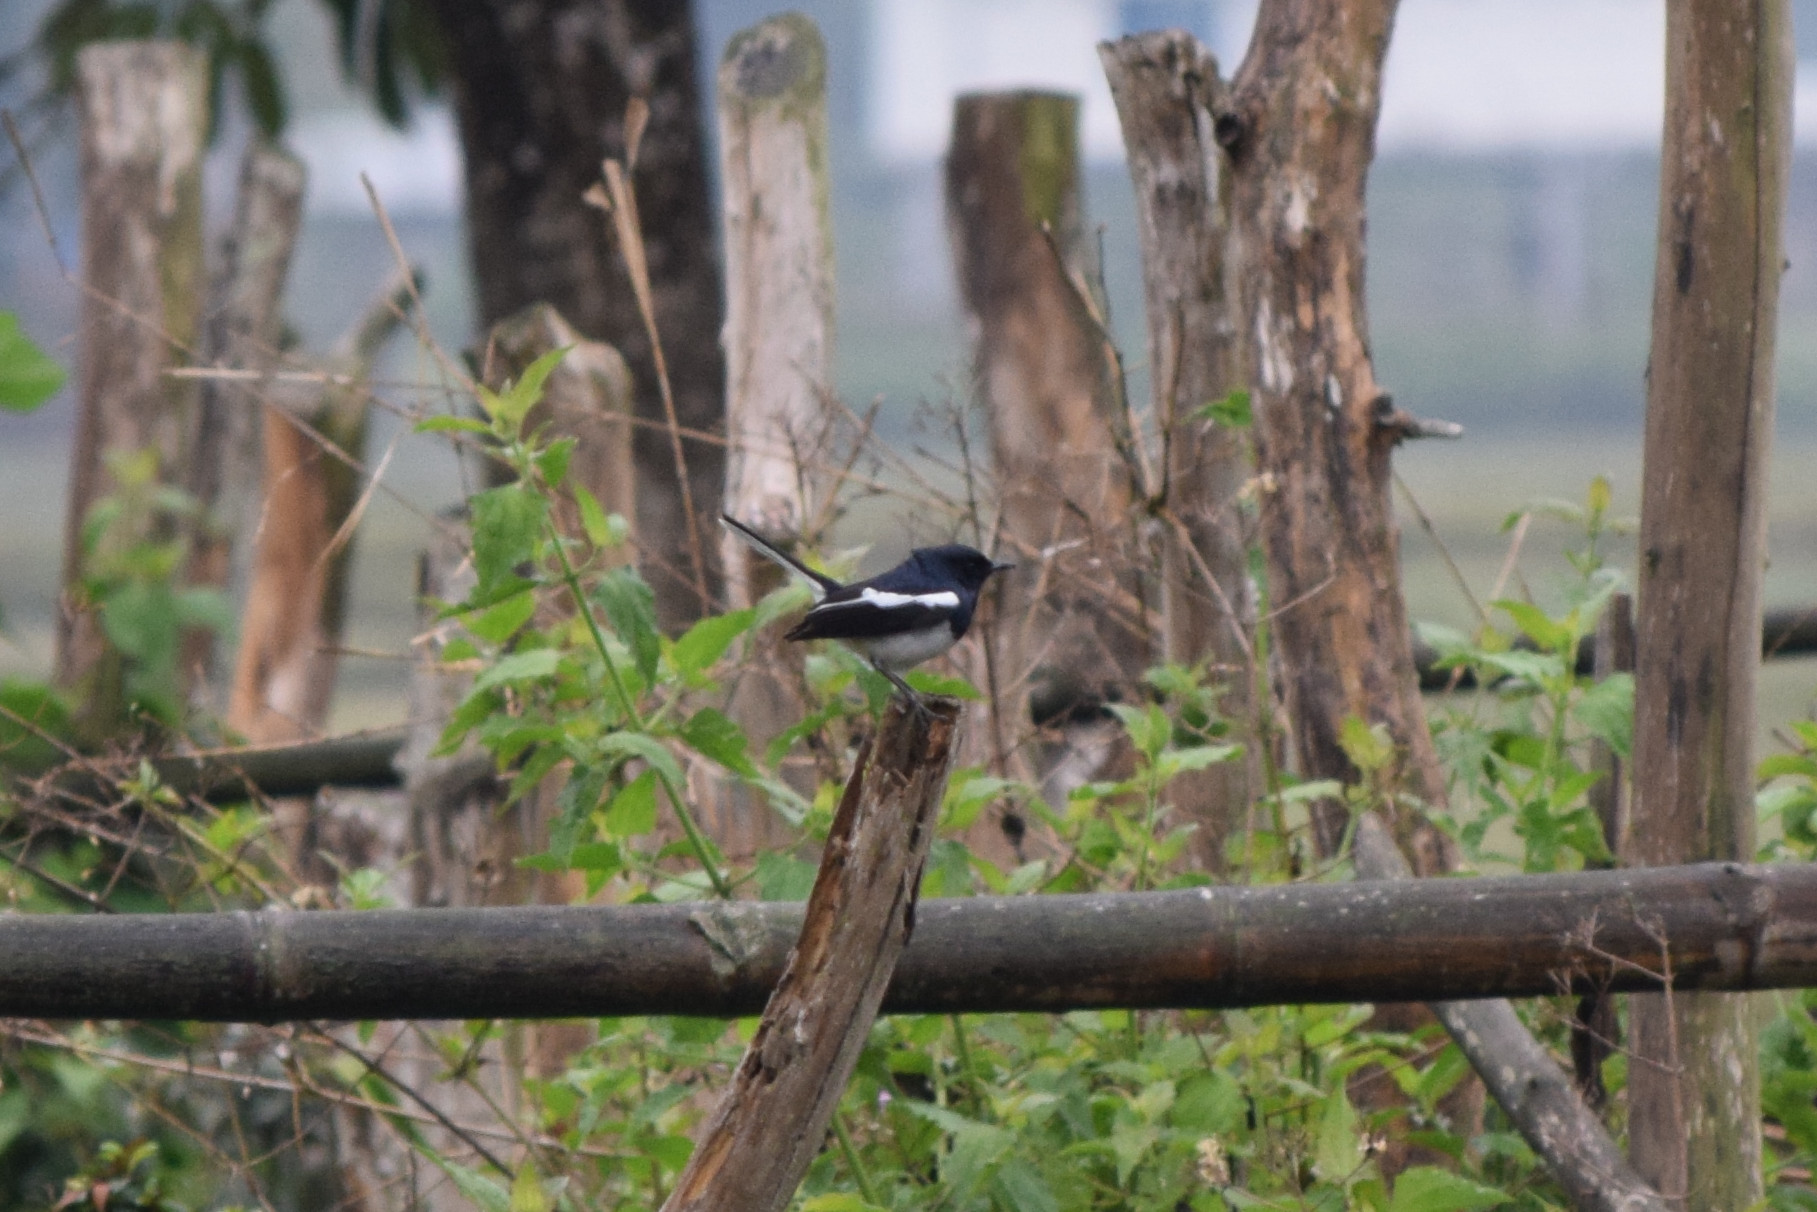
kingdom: Animalia
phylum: Chordata
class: Aves
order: Passeriformes
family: Muscicapidae
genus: Copsychus
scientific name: Copsychus saularis
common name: Oriental magpie-robin
